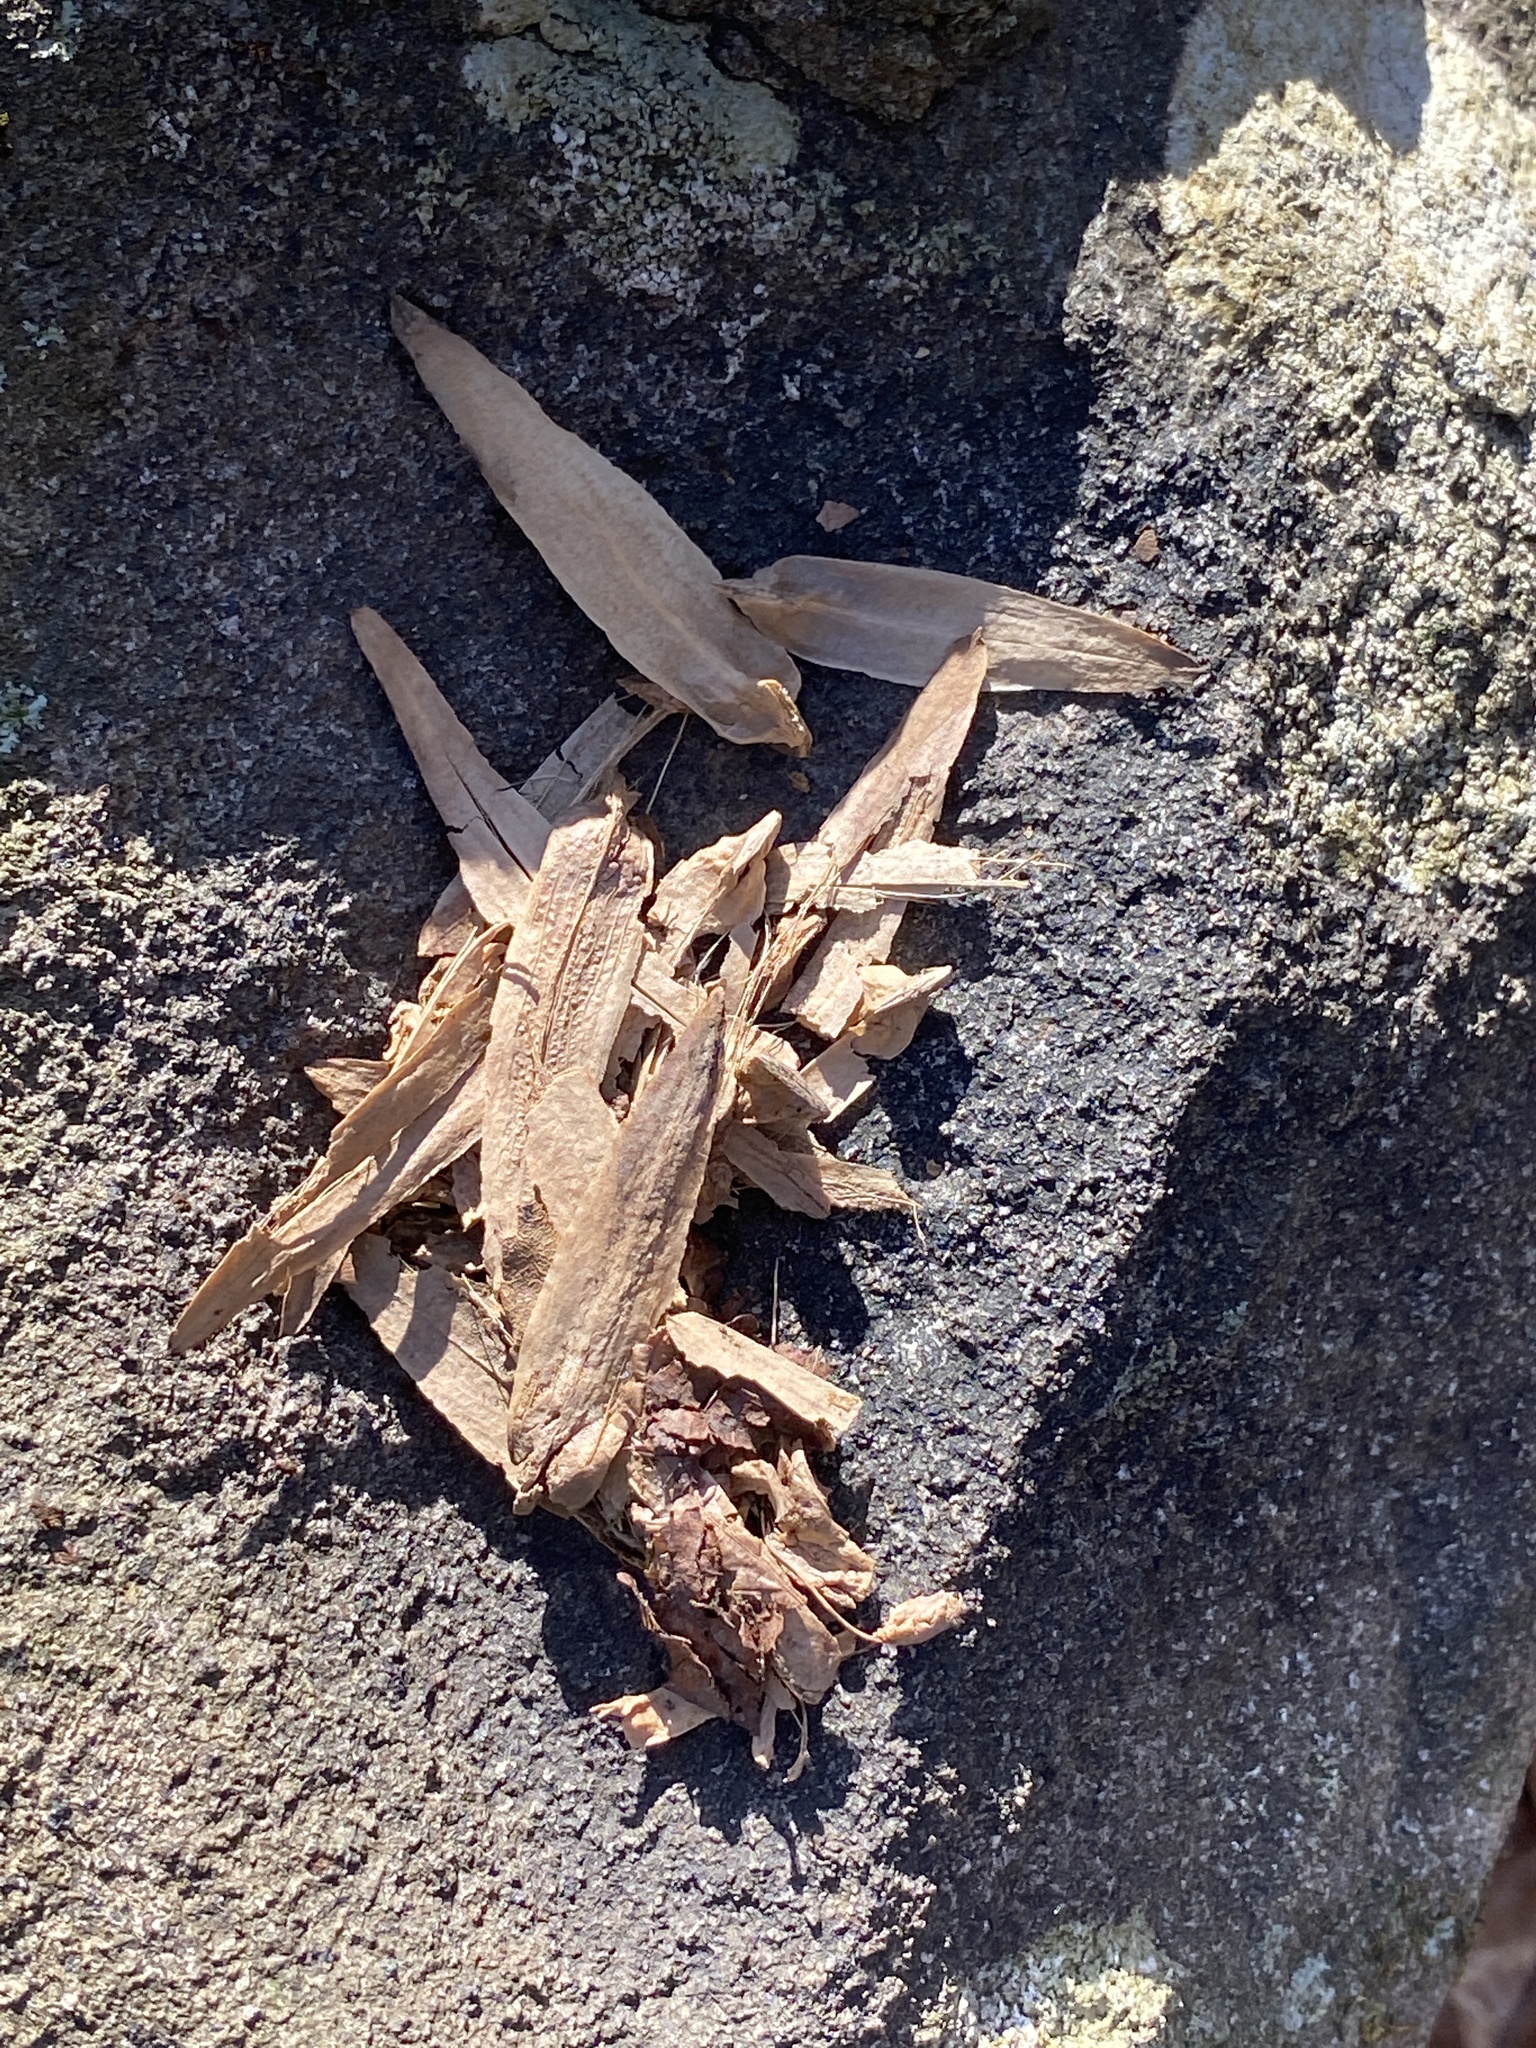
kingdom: Plantae
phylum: Tracheophyta
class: Magnoliopsida
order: Magnoliales
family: Magnoliaceae
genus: Liriodendron
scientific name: Liriodendron tulipifera
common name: Tulip tree
